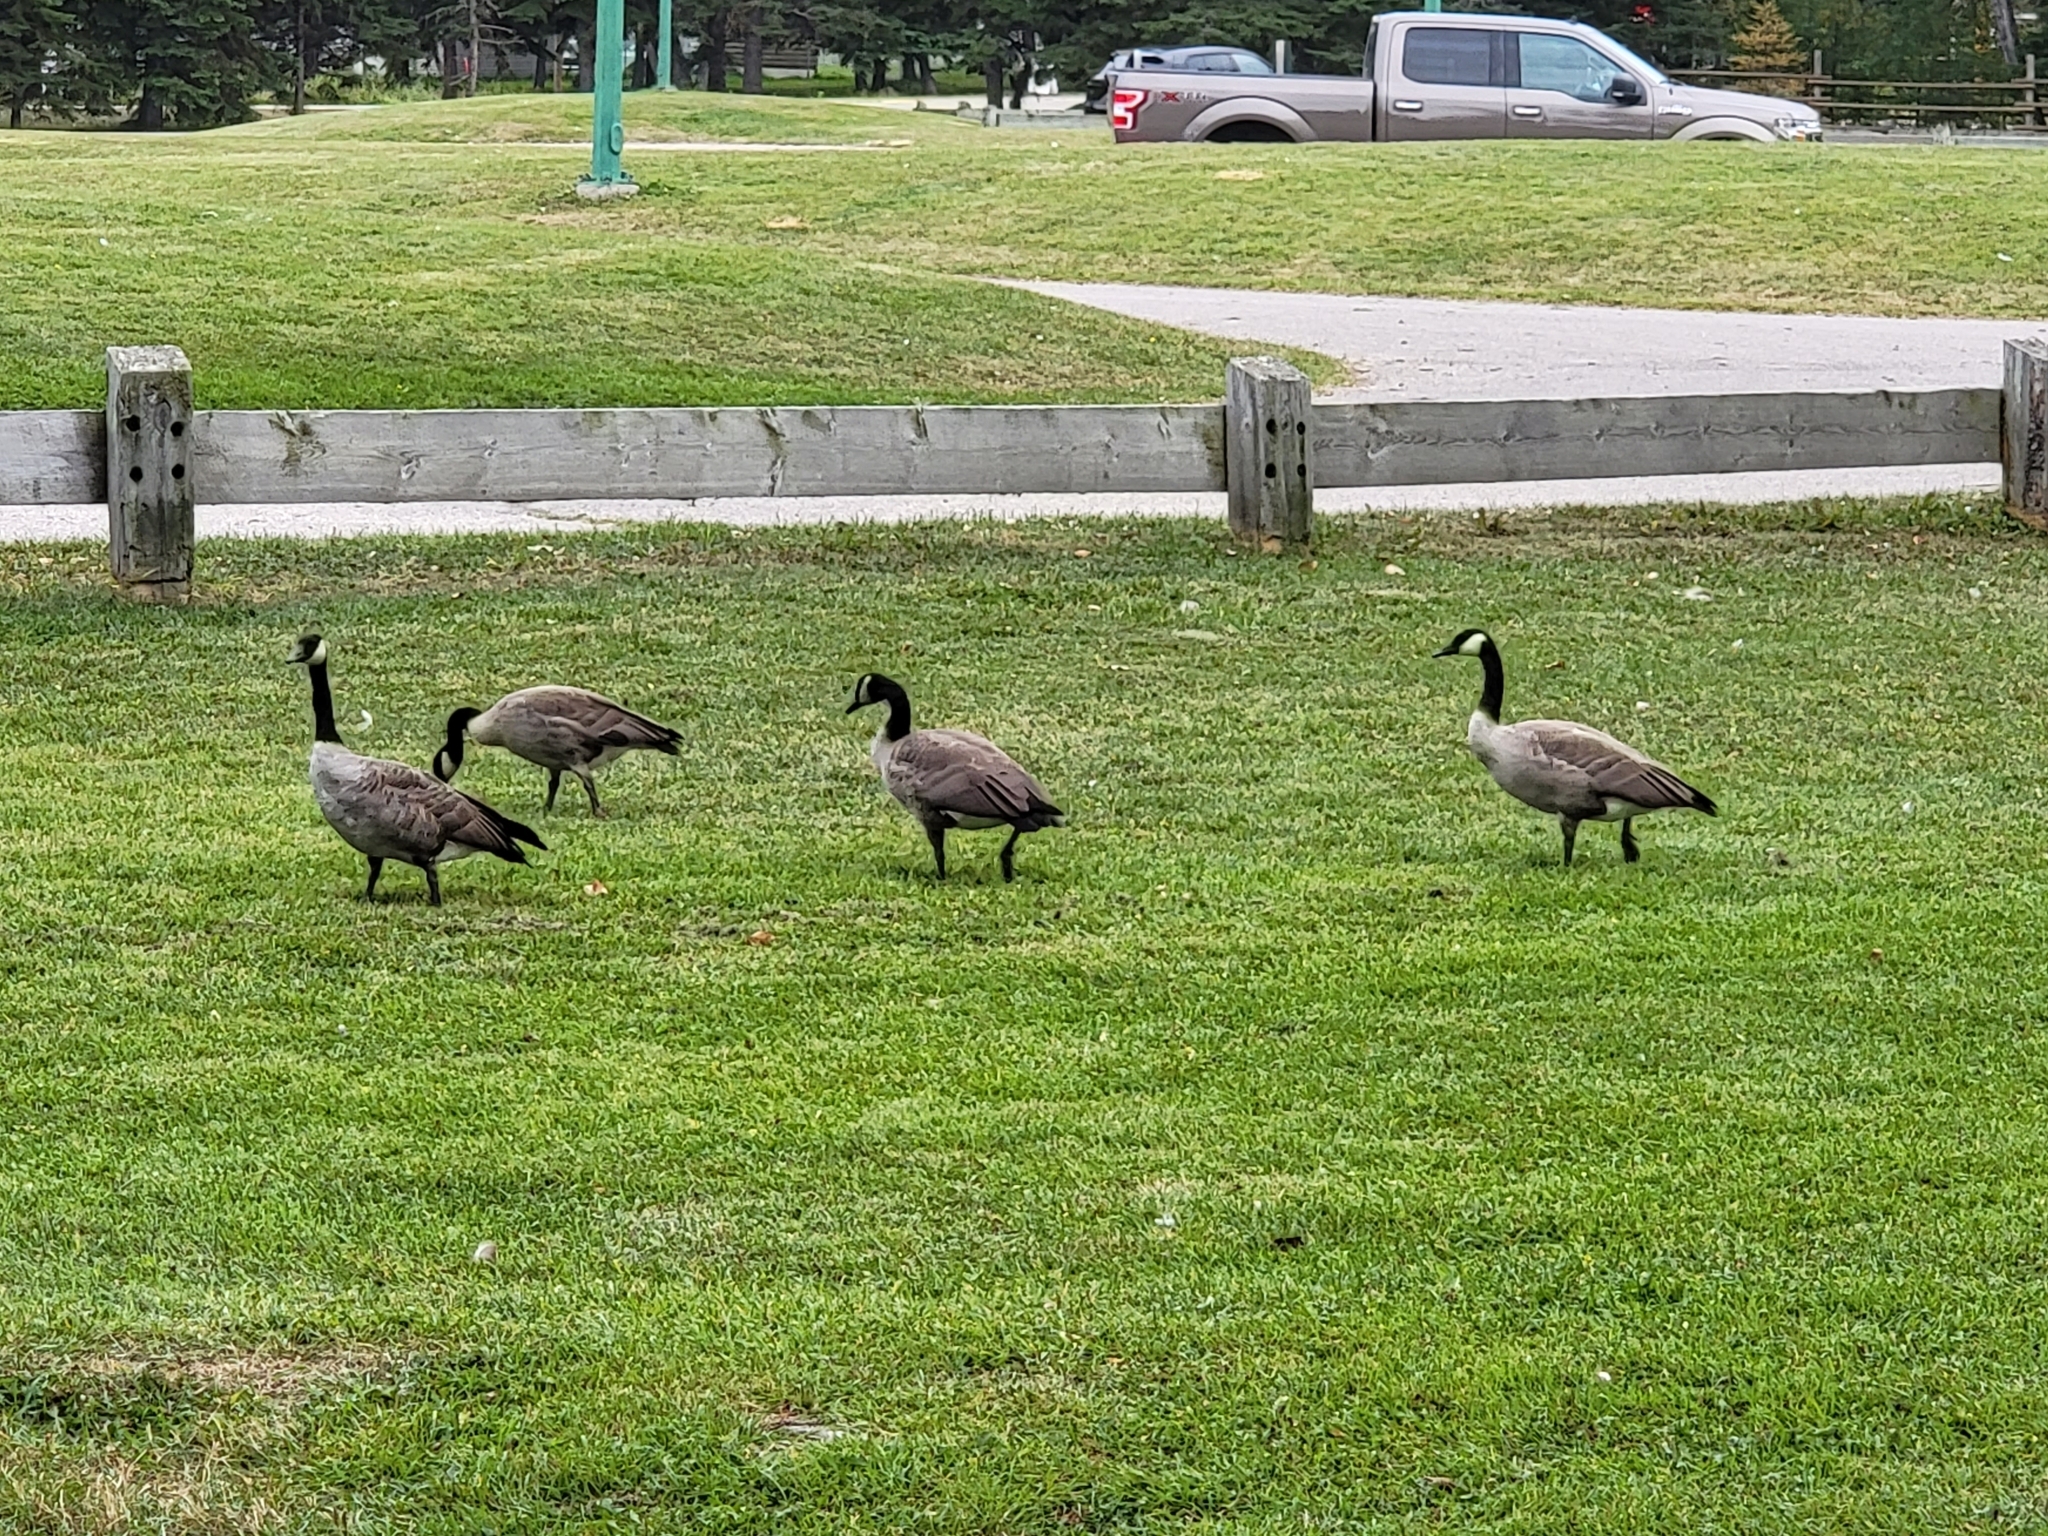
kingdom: Animalia
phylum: Chordata
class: Aves
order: Anseriformes
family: Anatidae
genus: Branta
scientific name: Branta canadensis
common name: Canada goose
